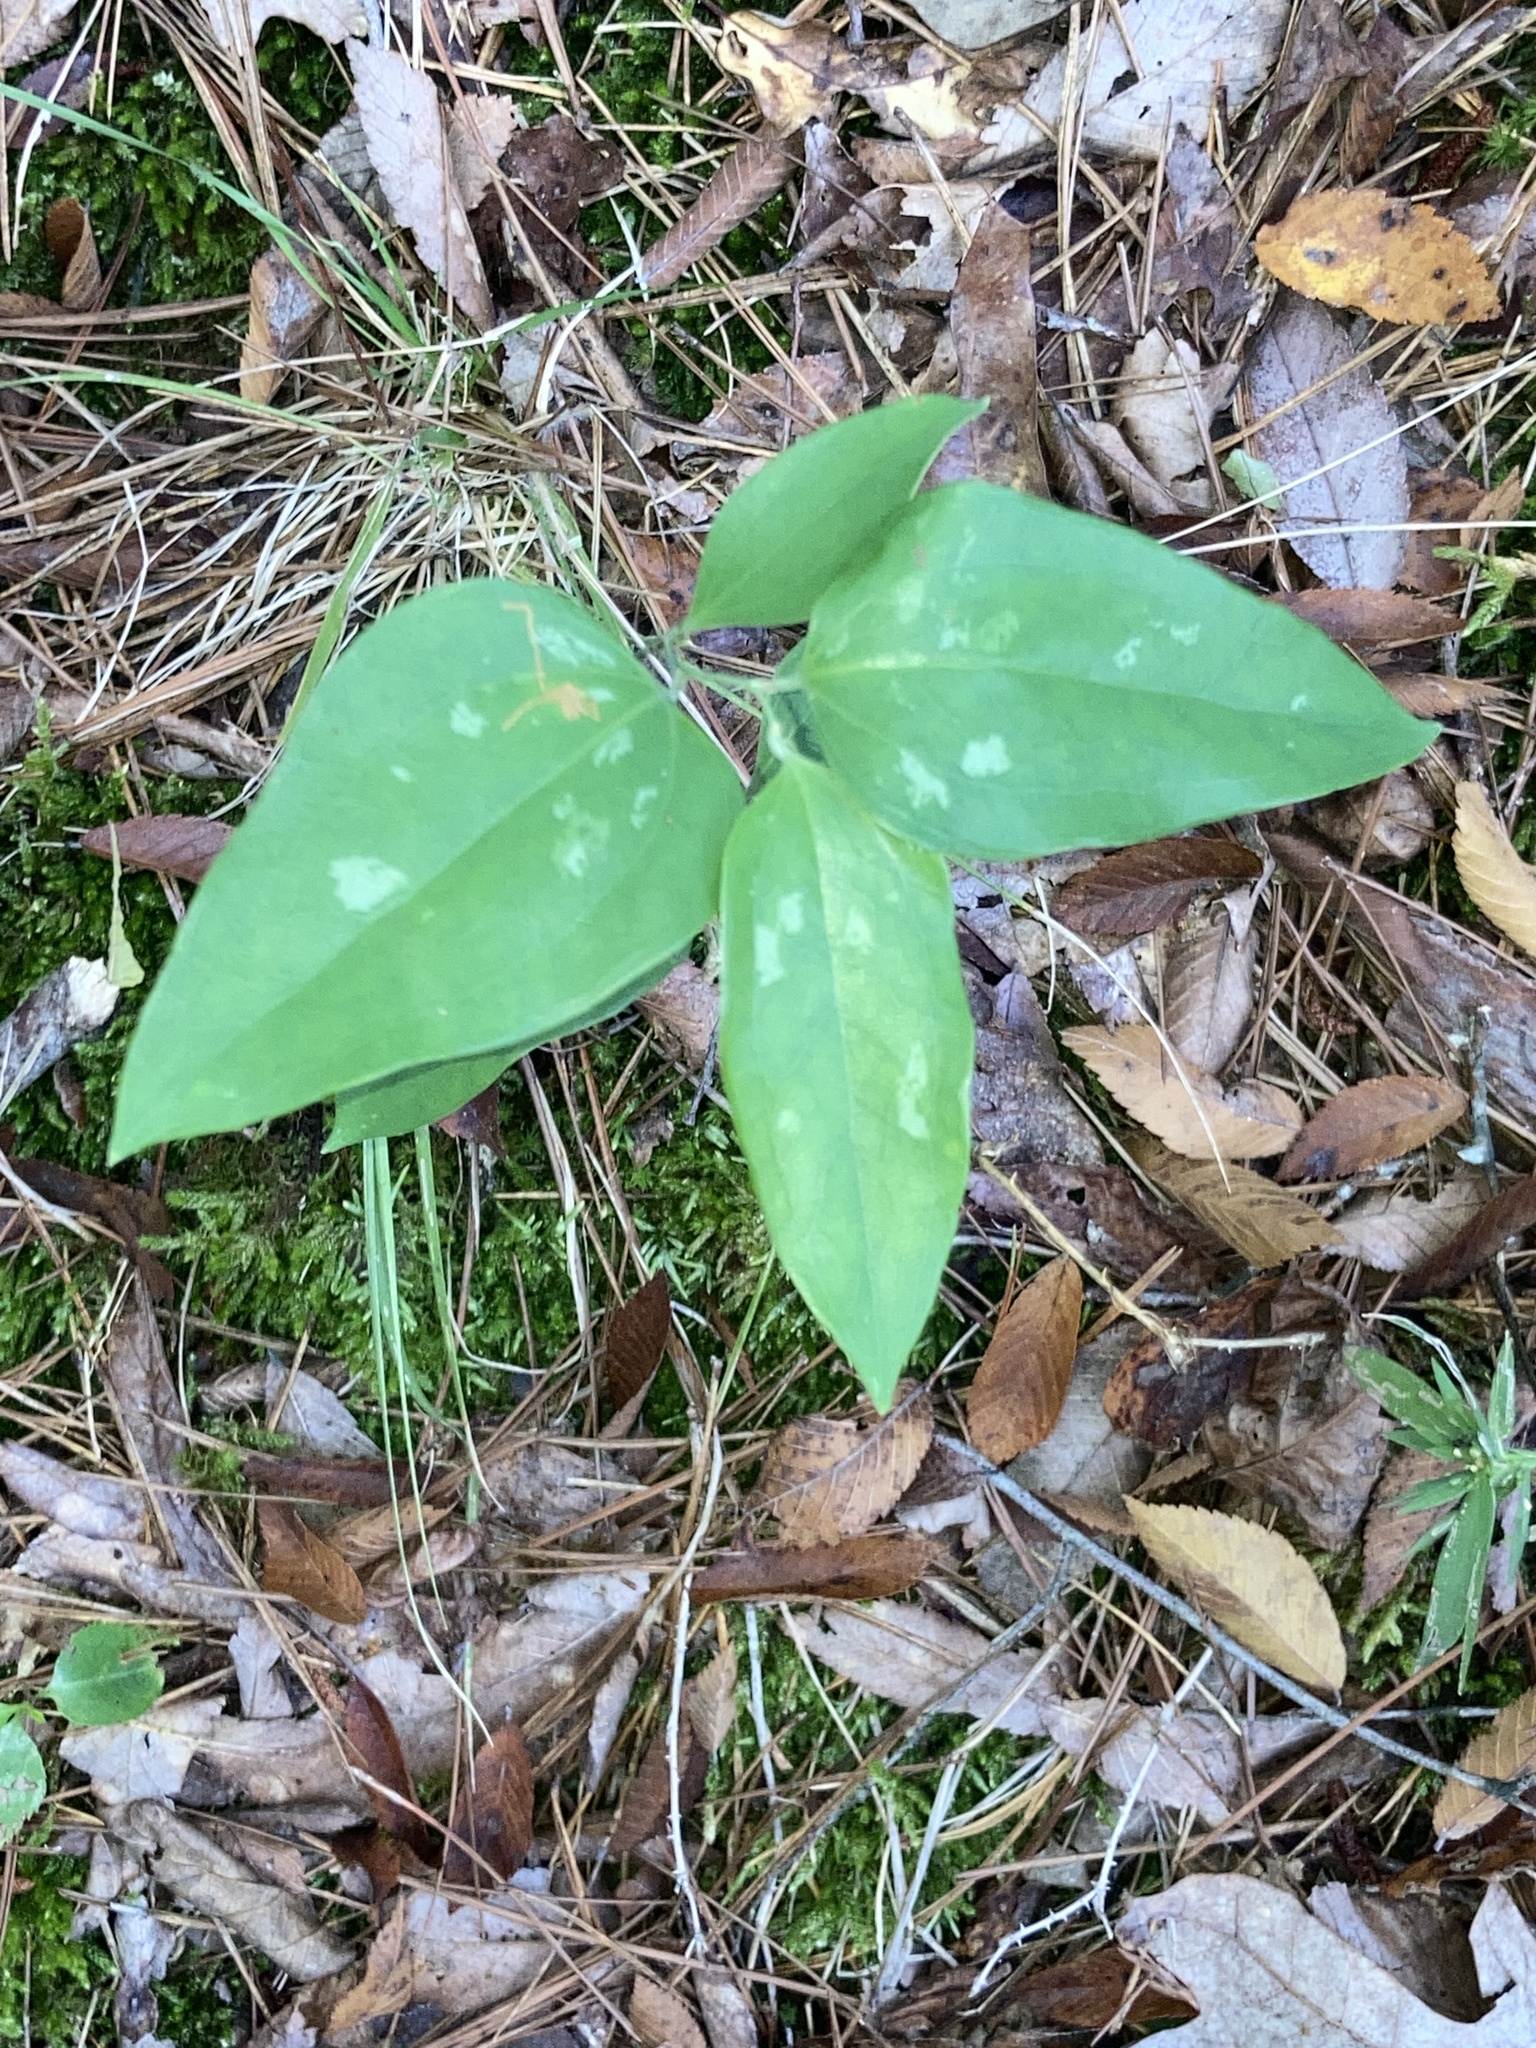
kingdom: Plantae
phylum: Tracheophyta
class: Liliopsida
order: Liliales
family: Smilacaceae
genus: Smilax
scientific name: Smilax glauca
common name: Cat greenbrier
